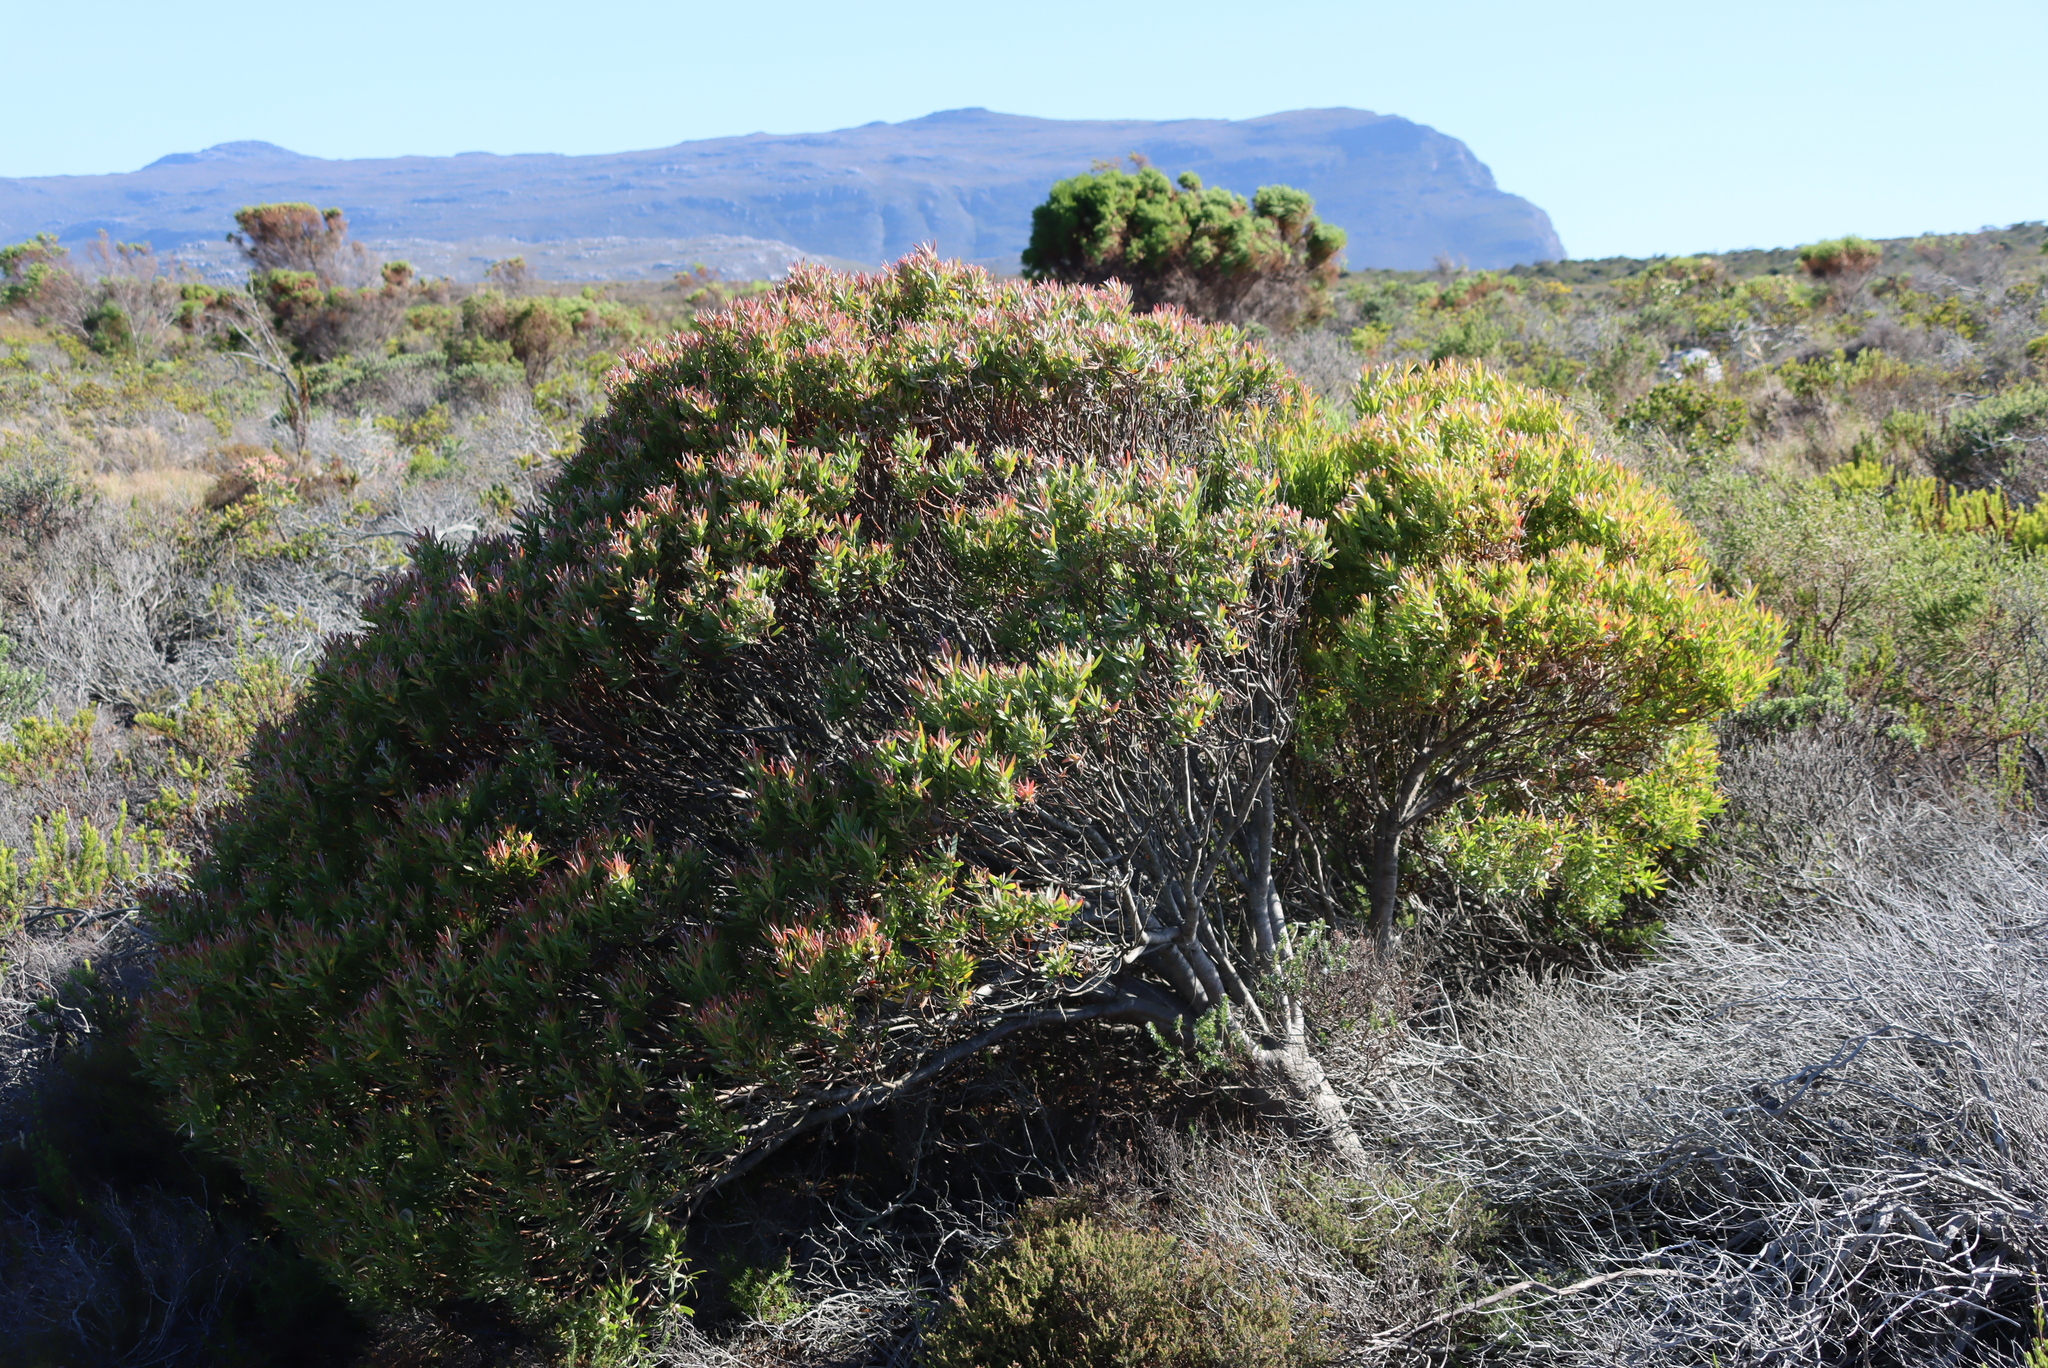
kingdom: Plantae
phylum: Tracheophyta
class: Magnoliopsida
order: Proteales
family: Proteaceae
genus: Leucadendron
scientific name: Leucadendron xanthoconus
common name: Sickle-leaf conebush
